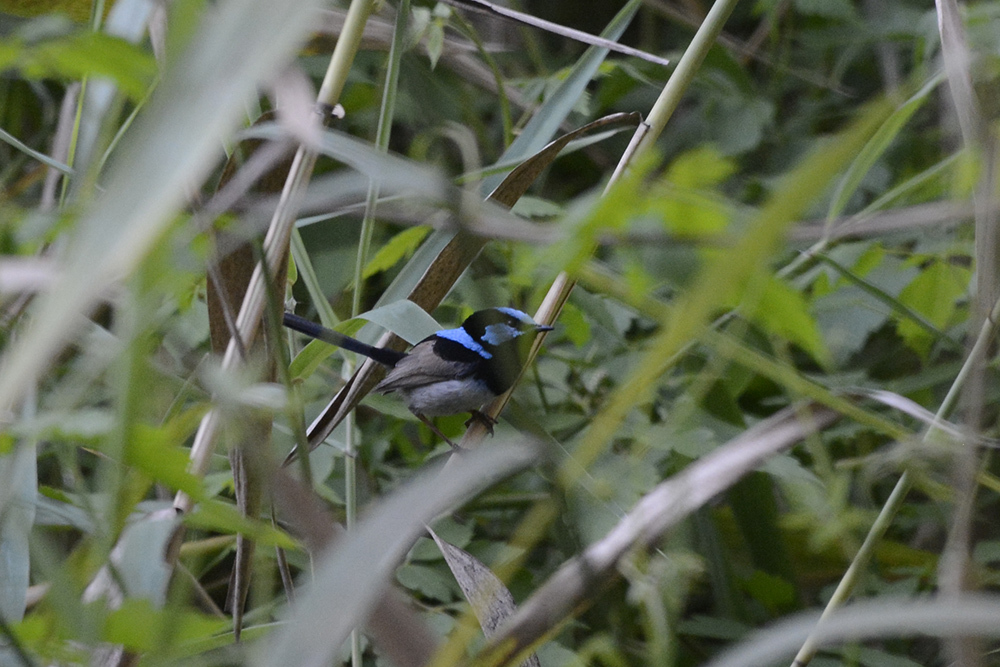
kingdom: Animalia
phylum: Chordata
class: Aves
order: Passeriformes
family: Maluridae
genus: Malurus
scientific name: Malurus cyaneus
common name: Superb fairywren
